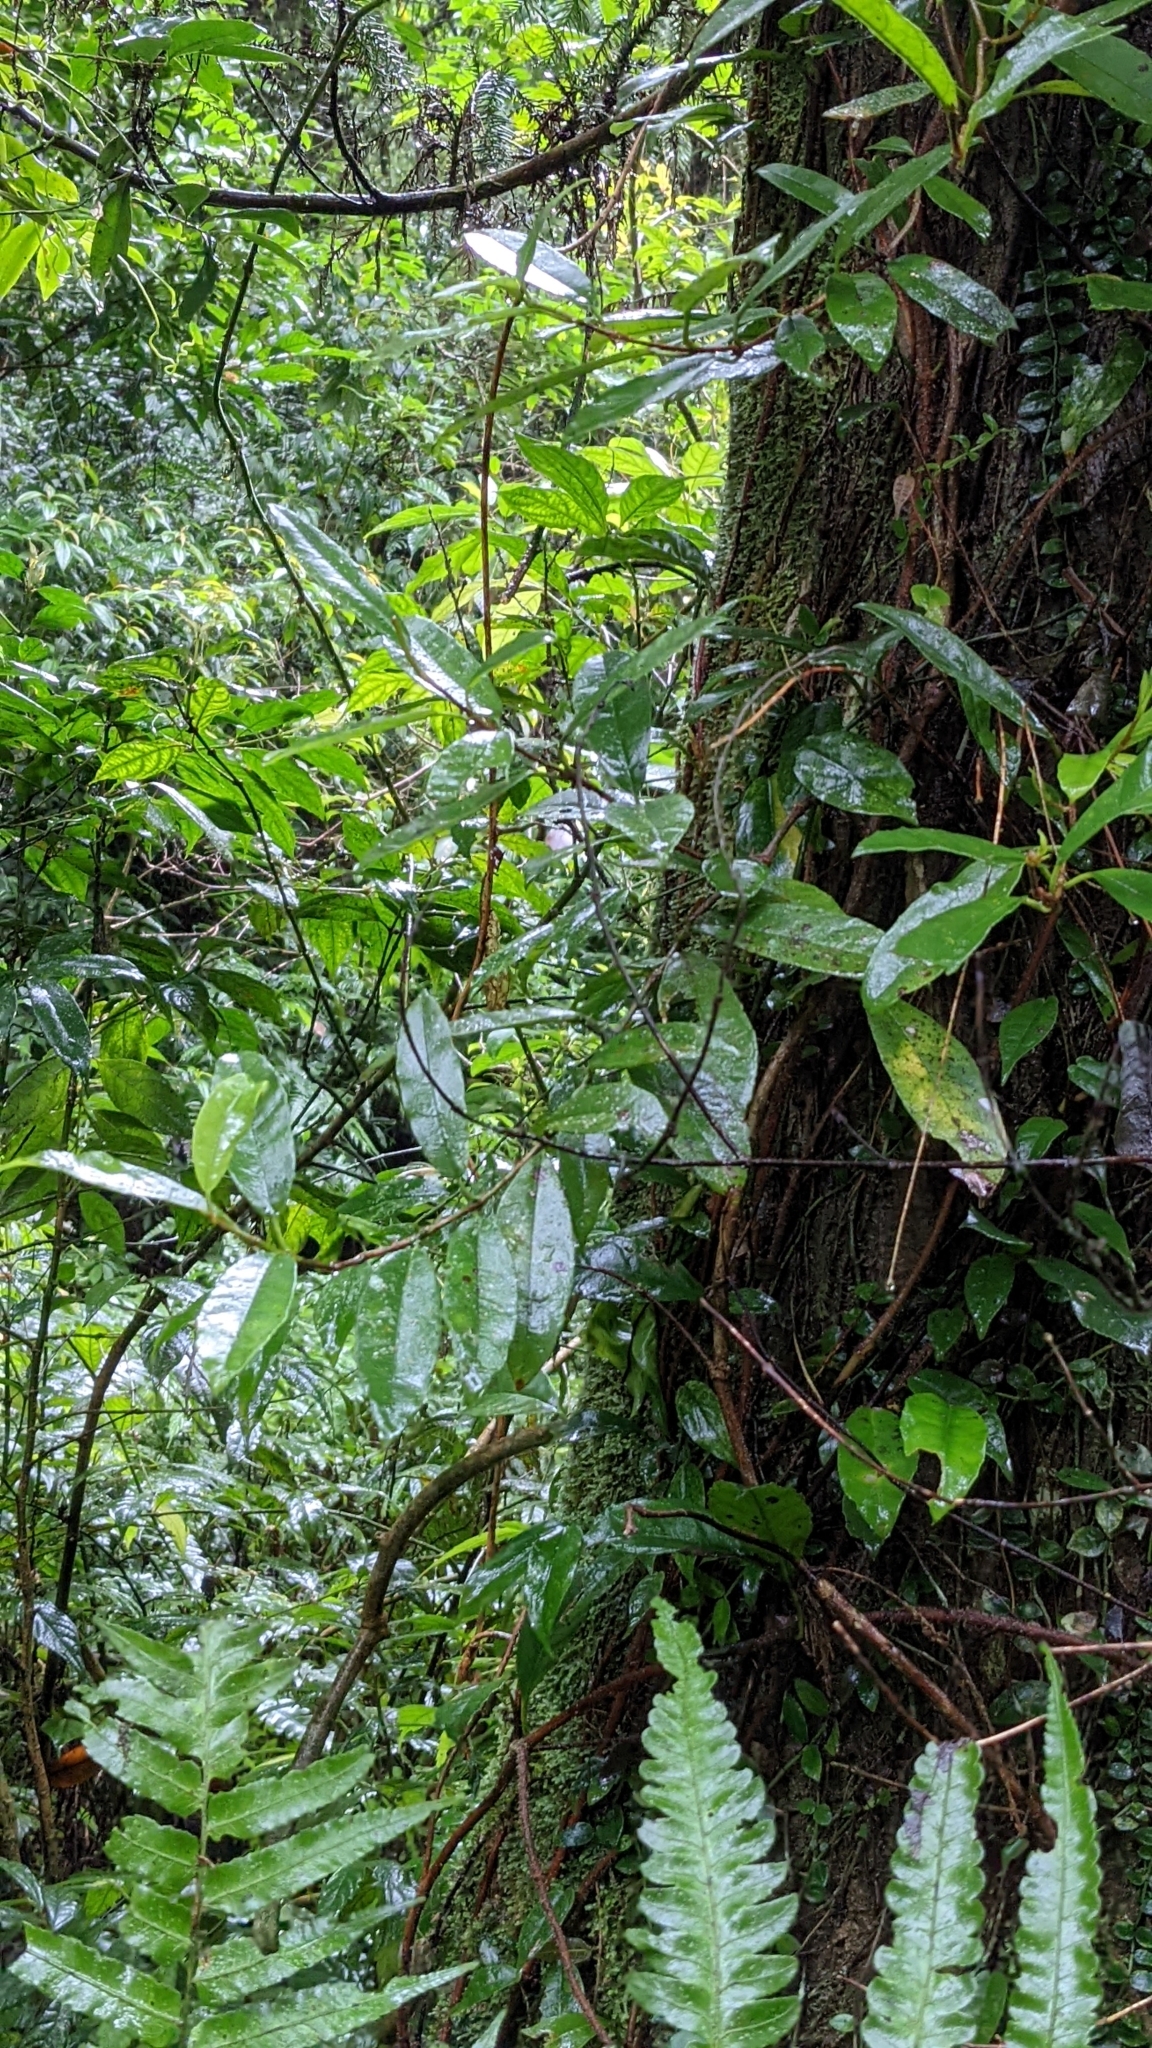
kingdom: Plantae
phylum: Tracheophyta
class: Magnoliopsida
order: Cornales
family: Hydrangeaceae
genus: Hydrangea
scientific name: Hydrangea viburnoides
